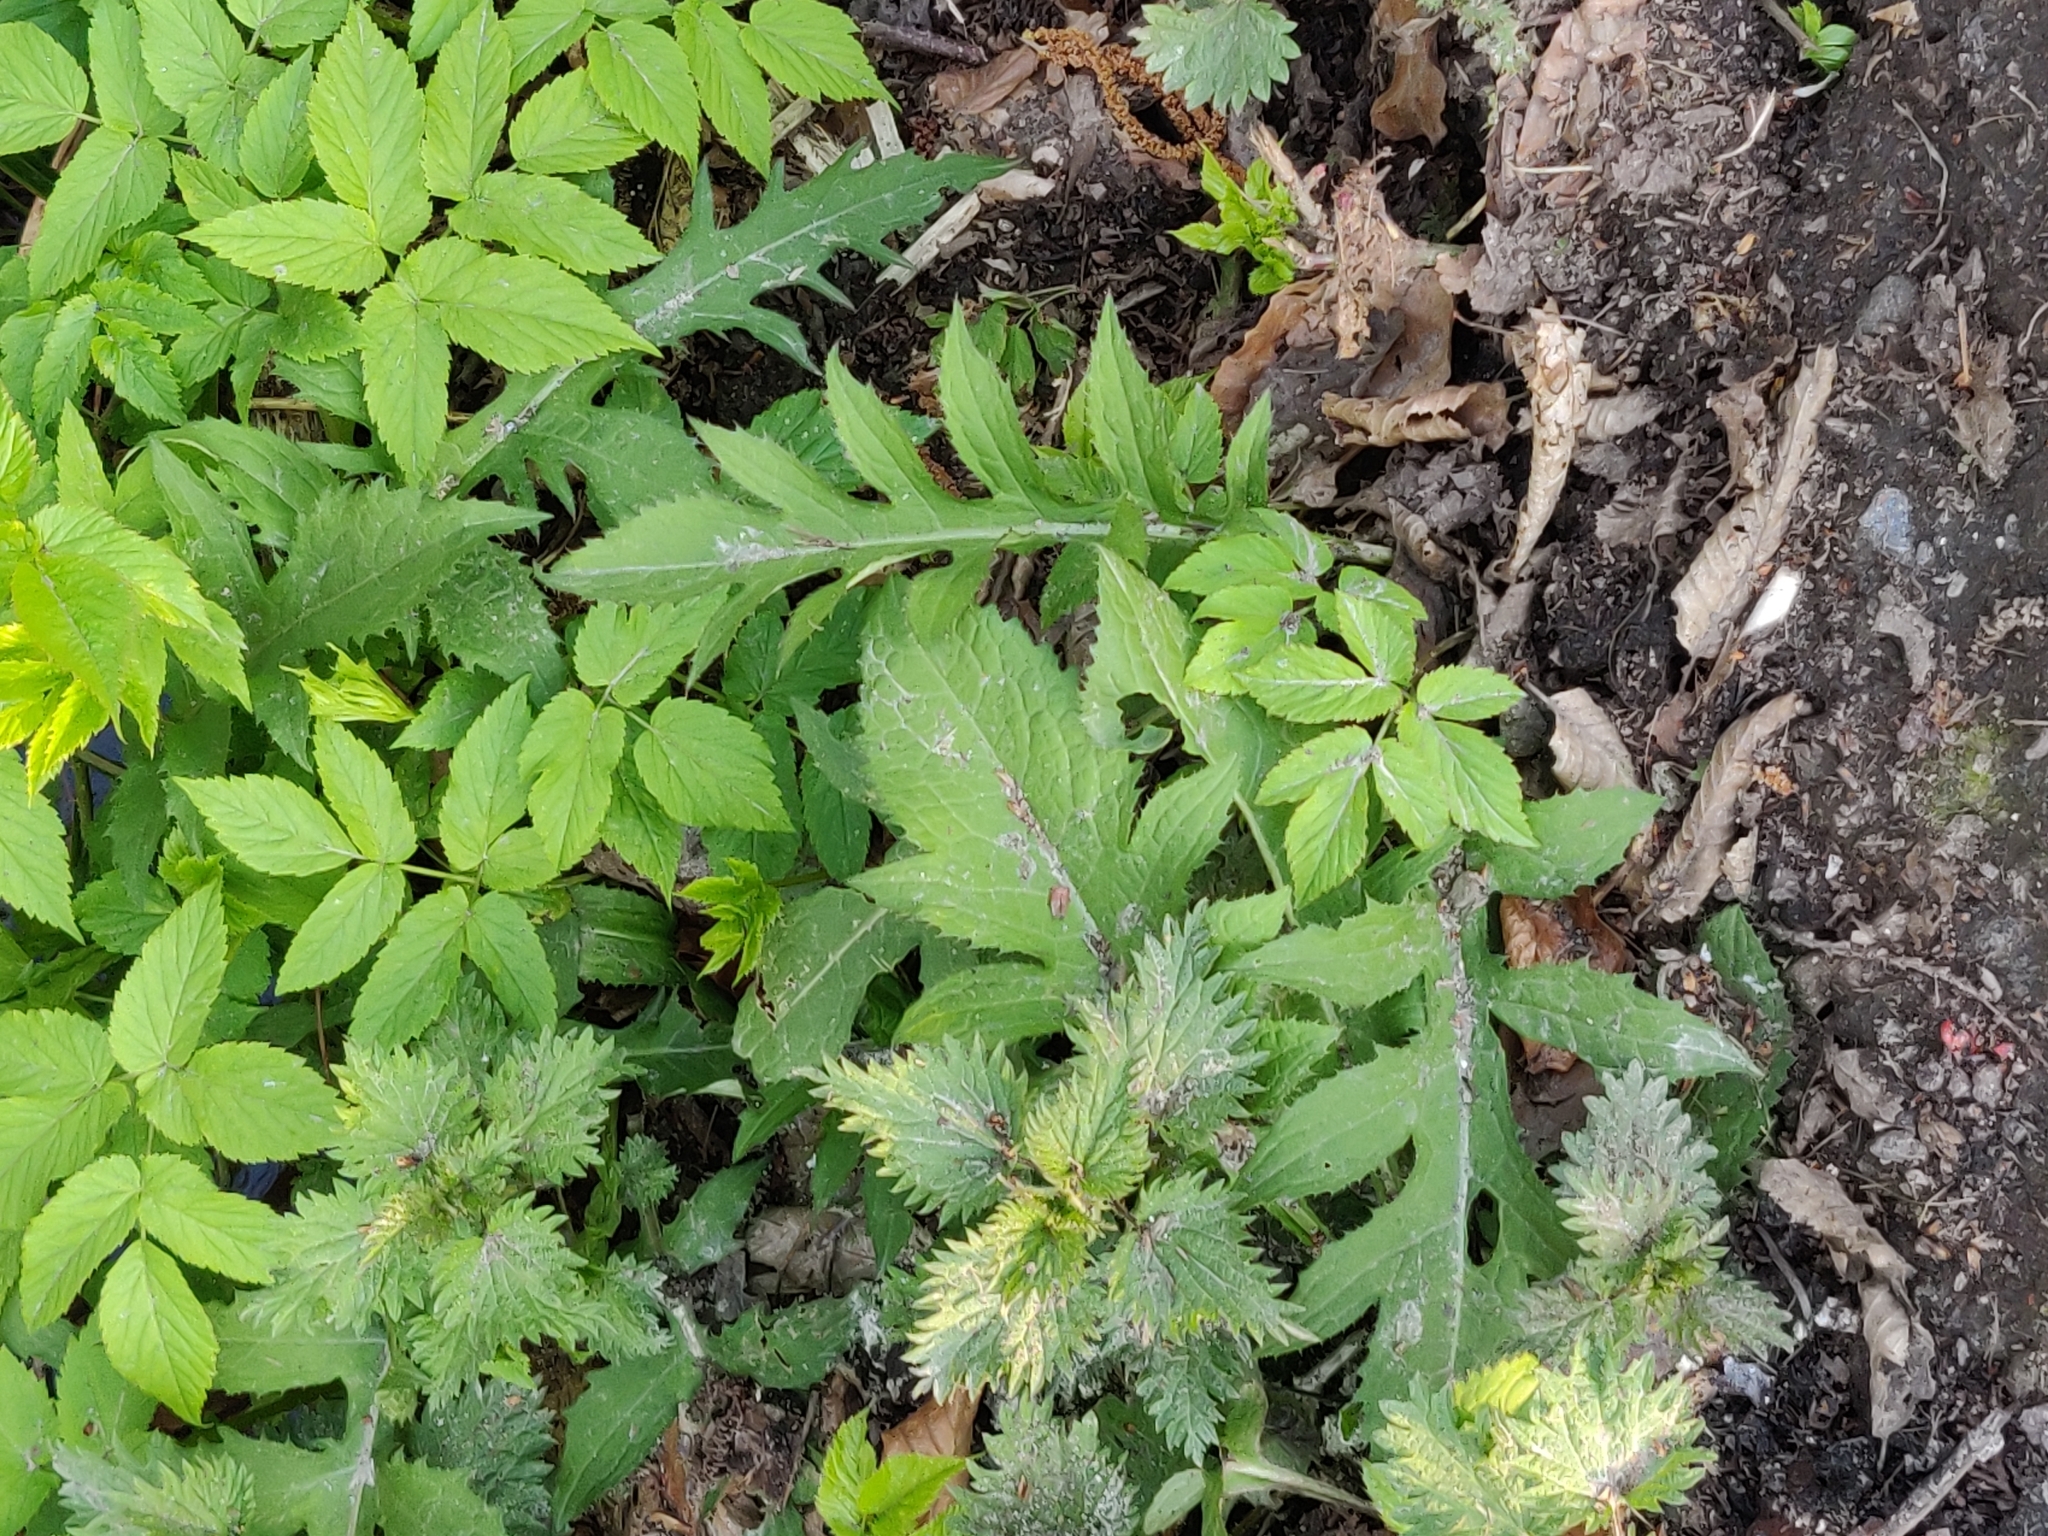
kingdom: Plantae
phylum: Tracheophyta
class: Magnoliopsida
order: Asterales
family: Asteraceae
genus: Cirsium
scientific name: Cirsium oleraceum
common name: Cabbage thistle
